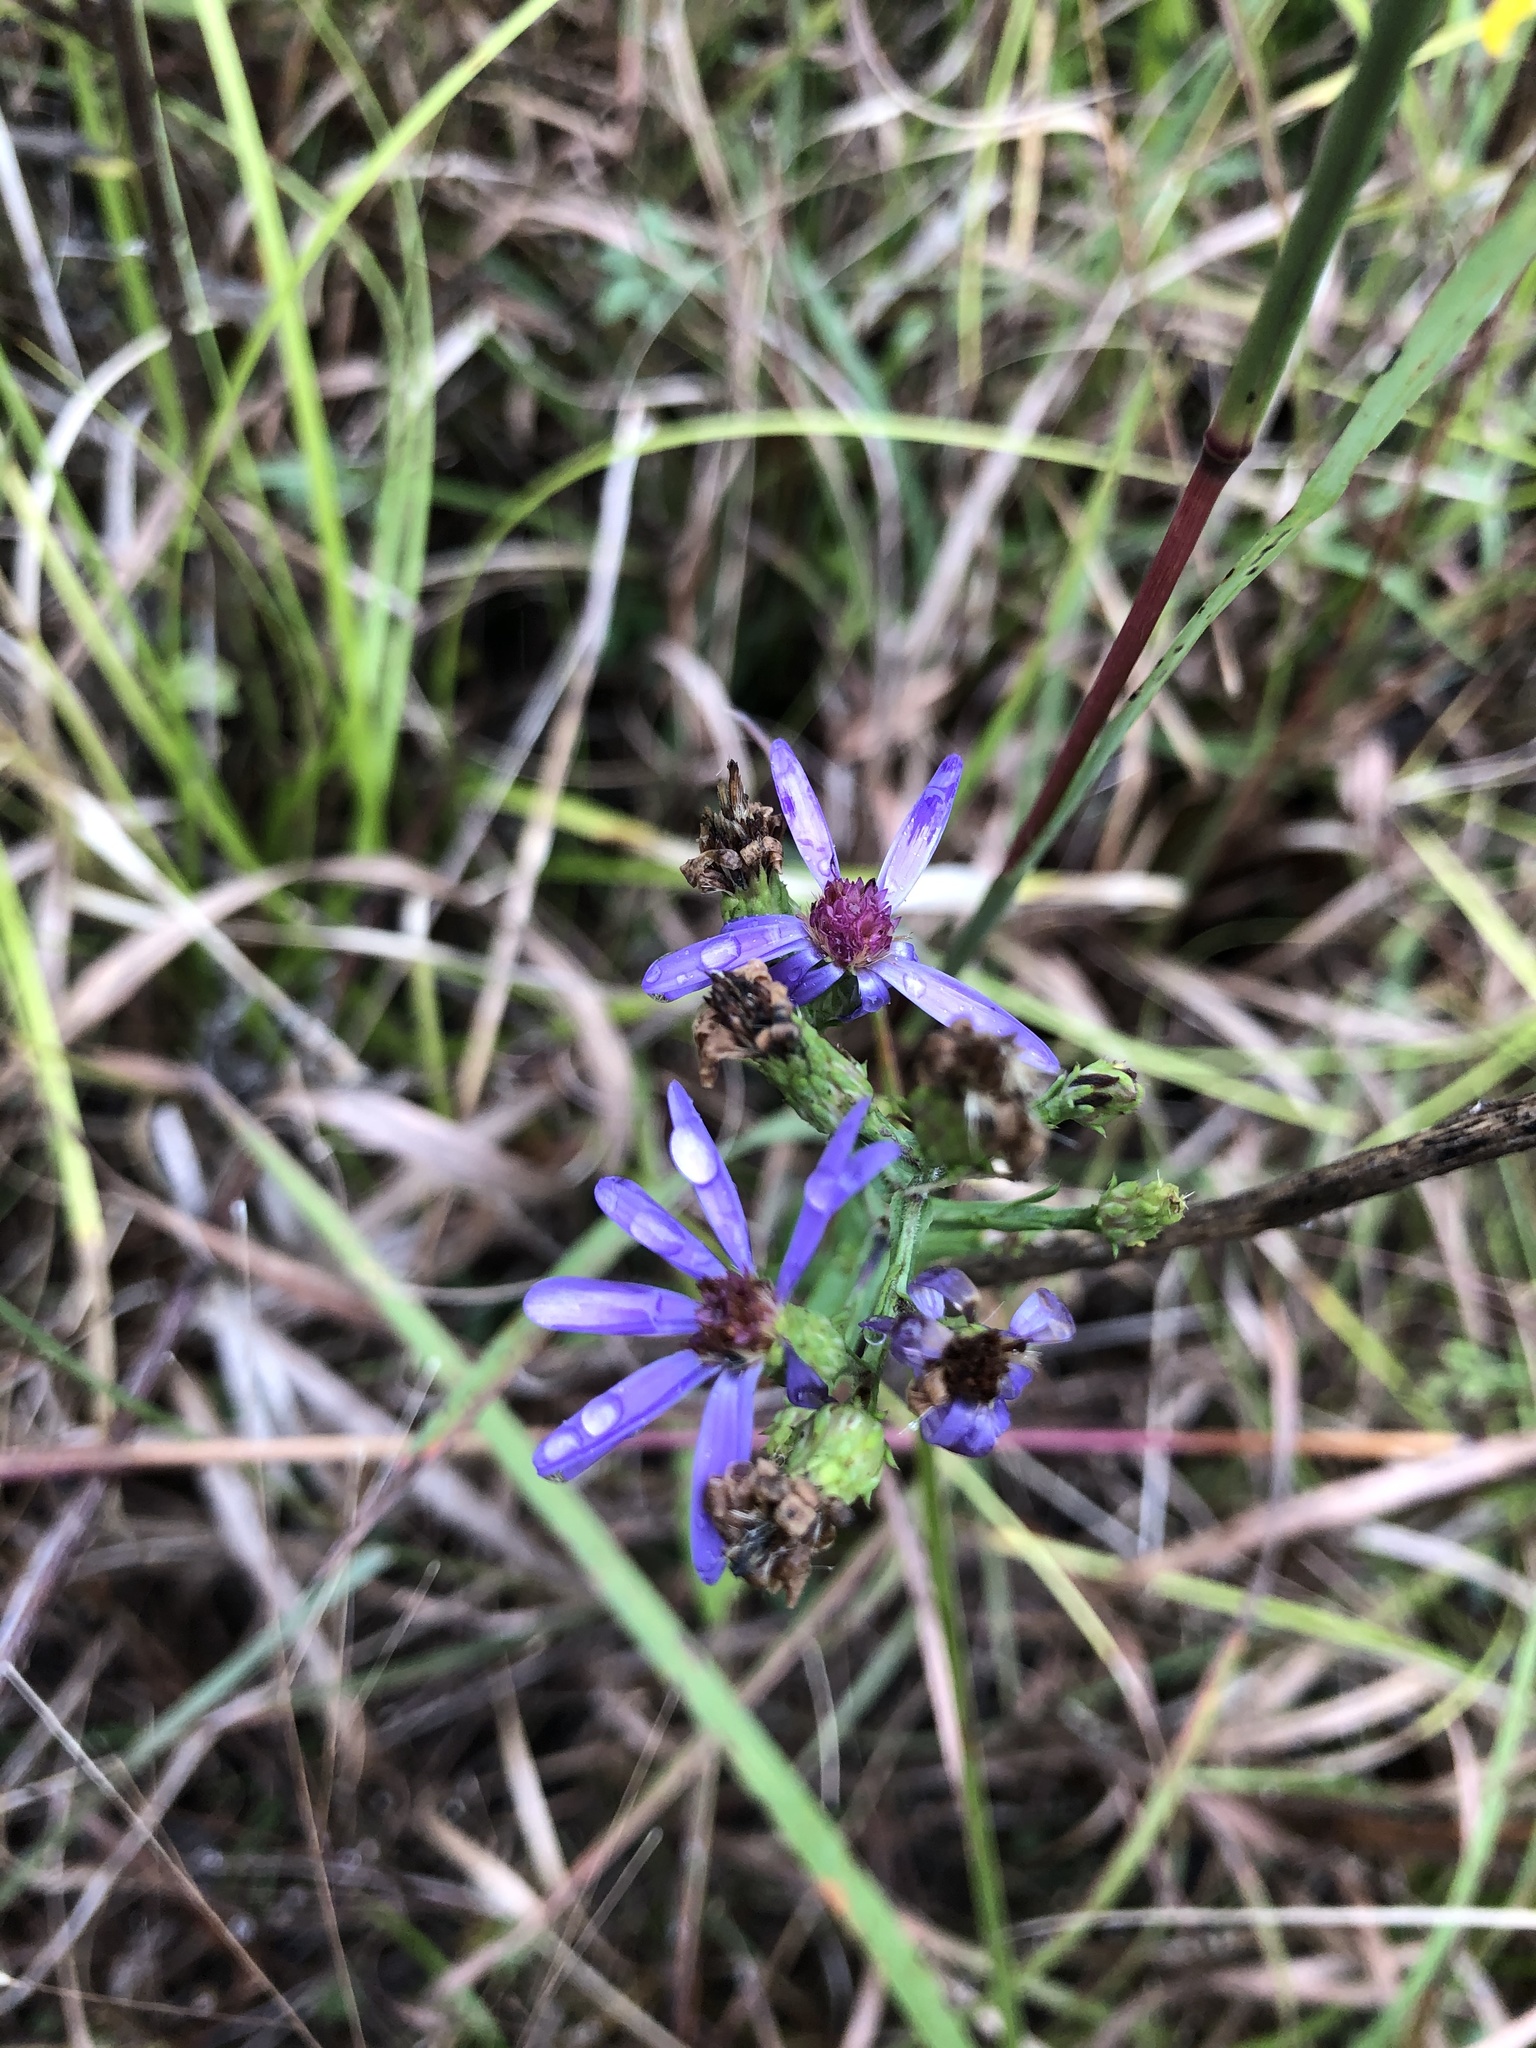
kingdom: Plantae
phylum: Tracheophyta
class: Magnoliopsida
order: Asterales
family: Asteraceae
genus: Symphyotrichum
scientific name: Symphyotrichum laeve
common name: Glaucous aster
